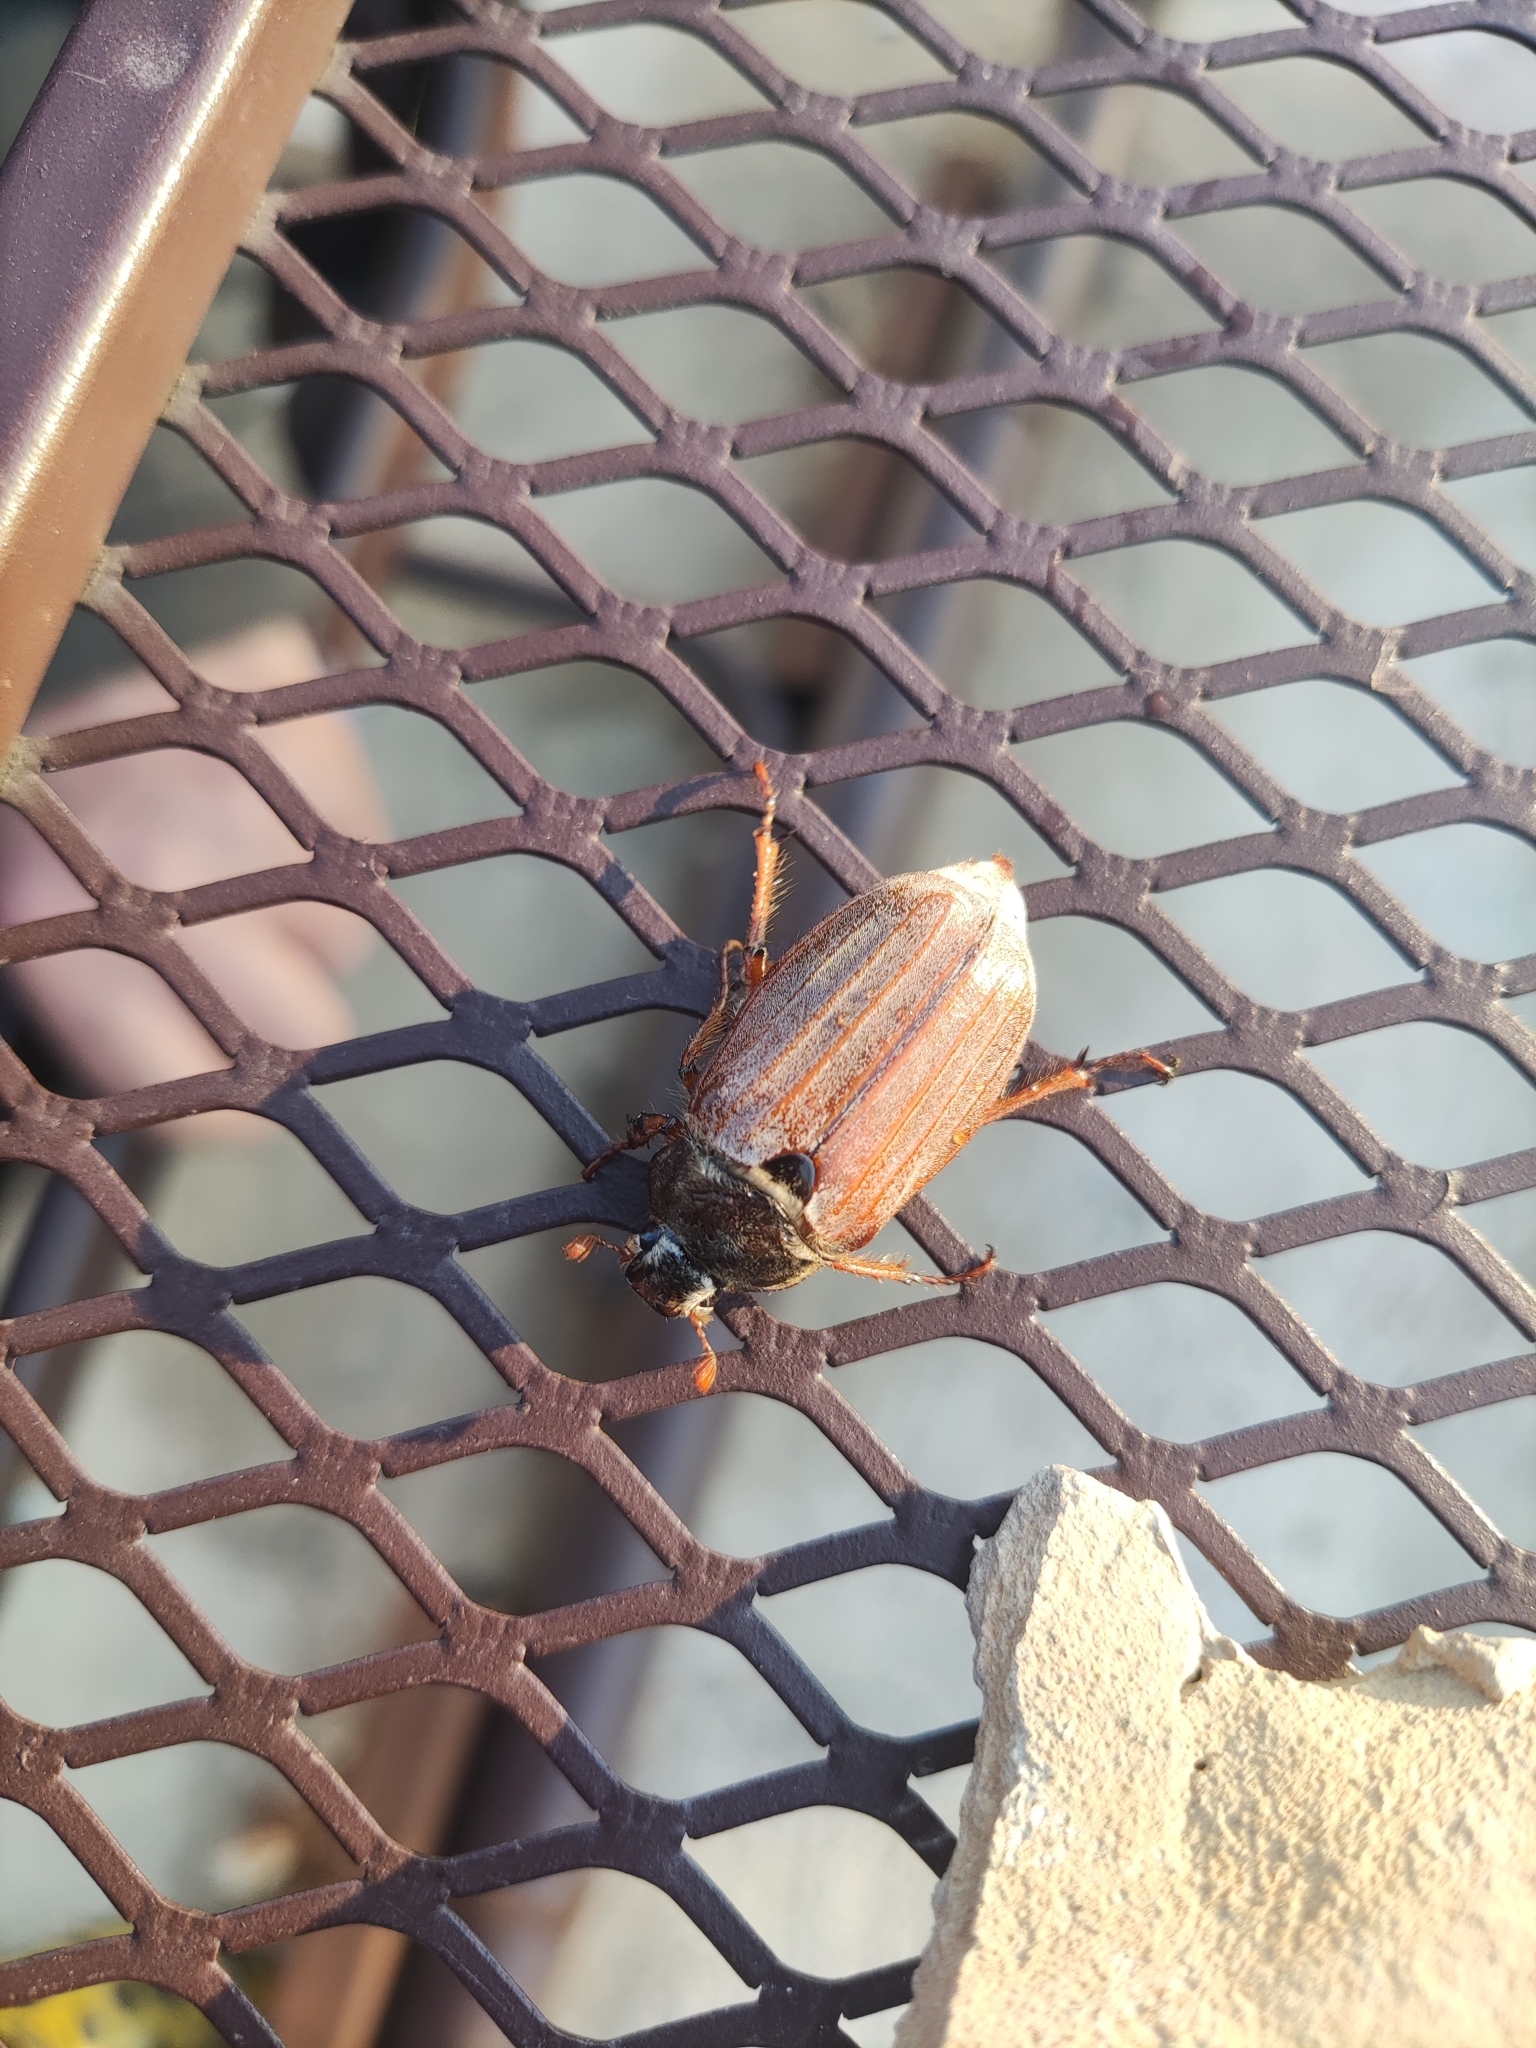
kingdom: Animalia
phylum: Arthropoda
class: Insecta
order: Coleoptera
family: Scarabaeidae
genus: Melolontha
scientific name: Melolontha melolontha
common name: Cockchafer maybeetle
